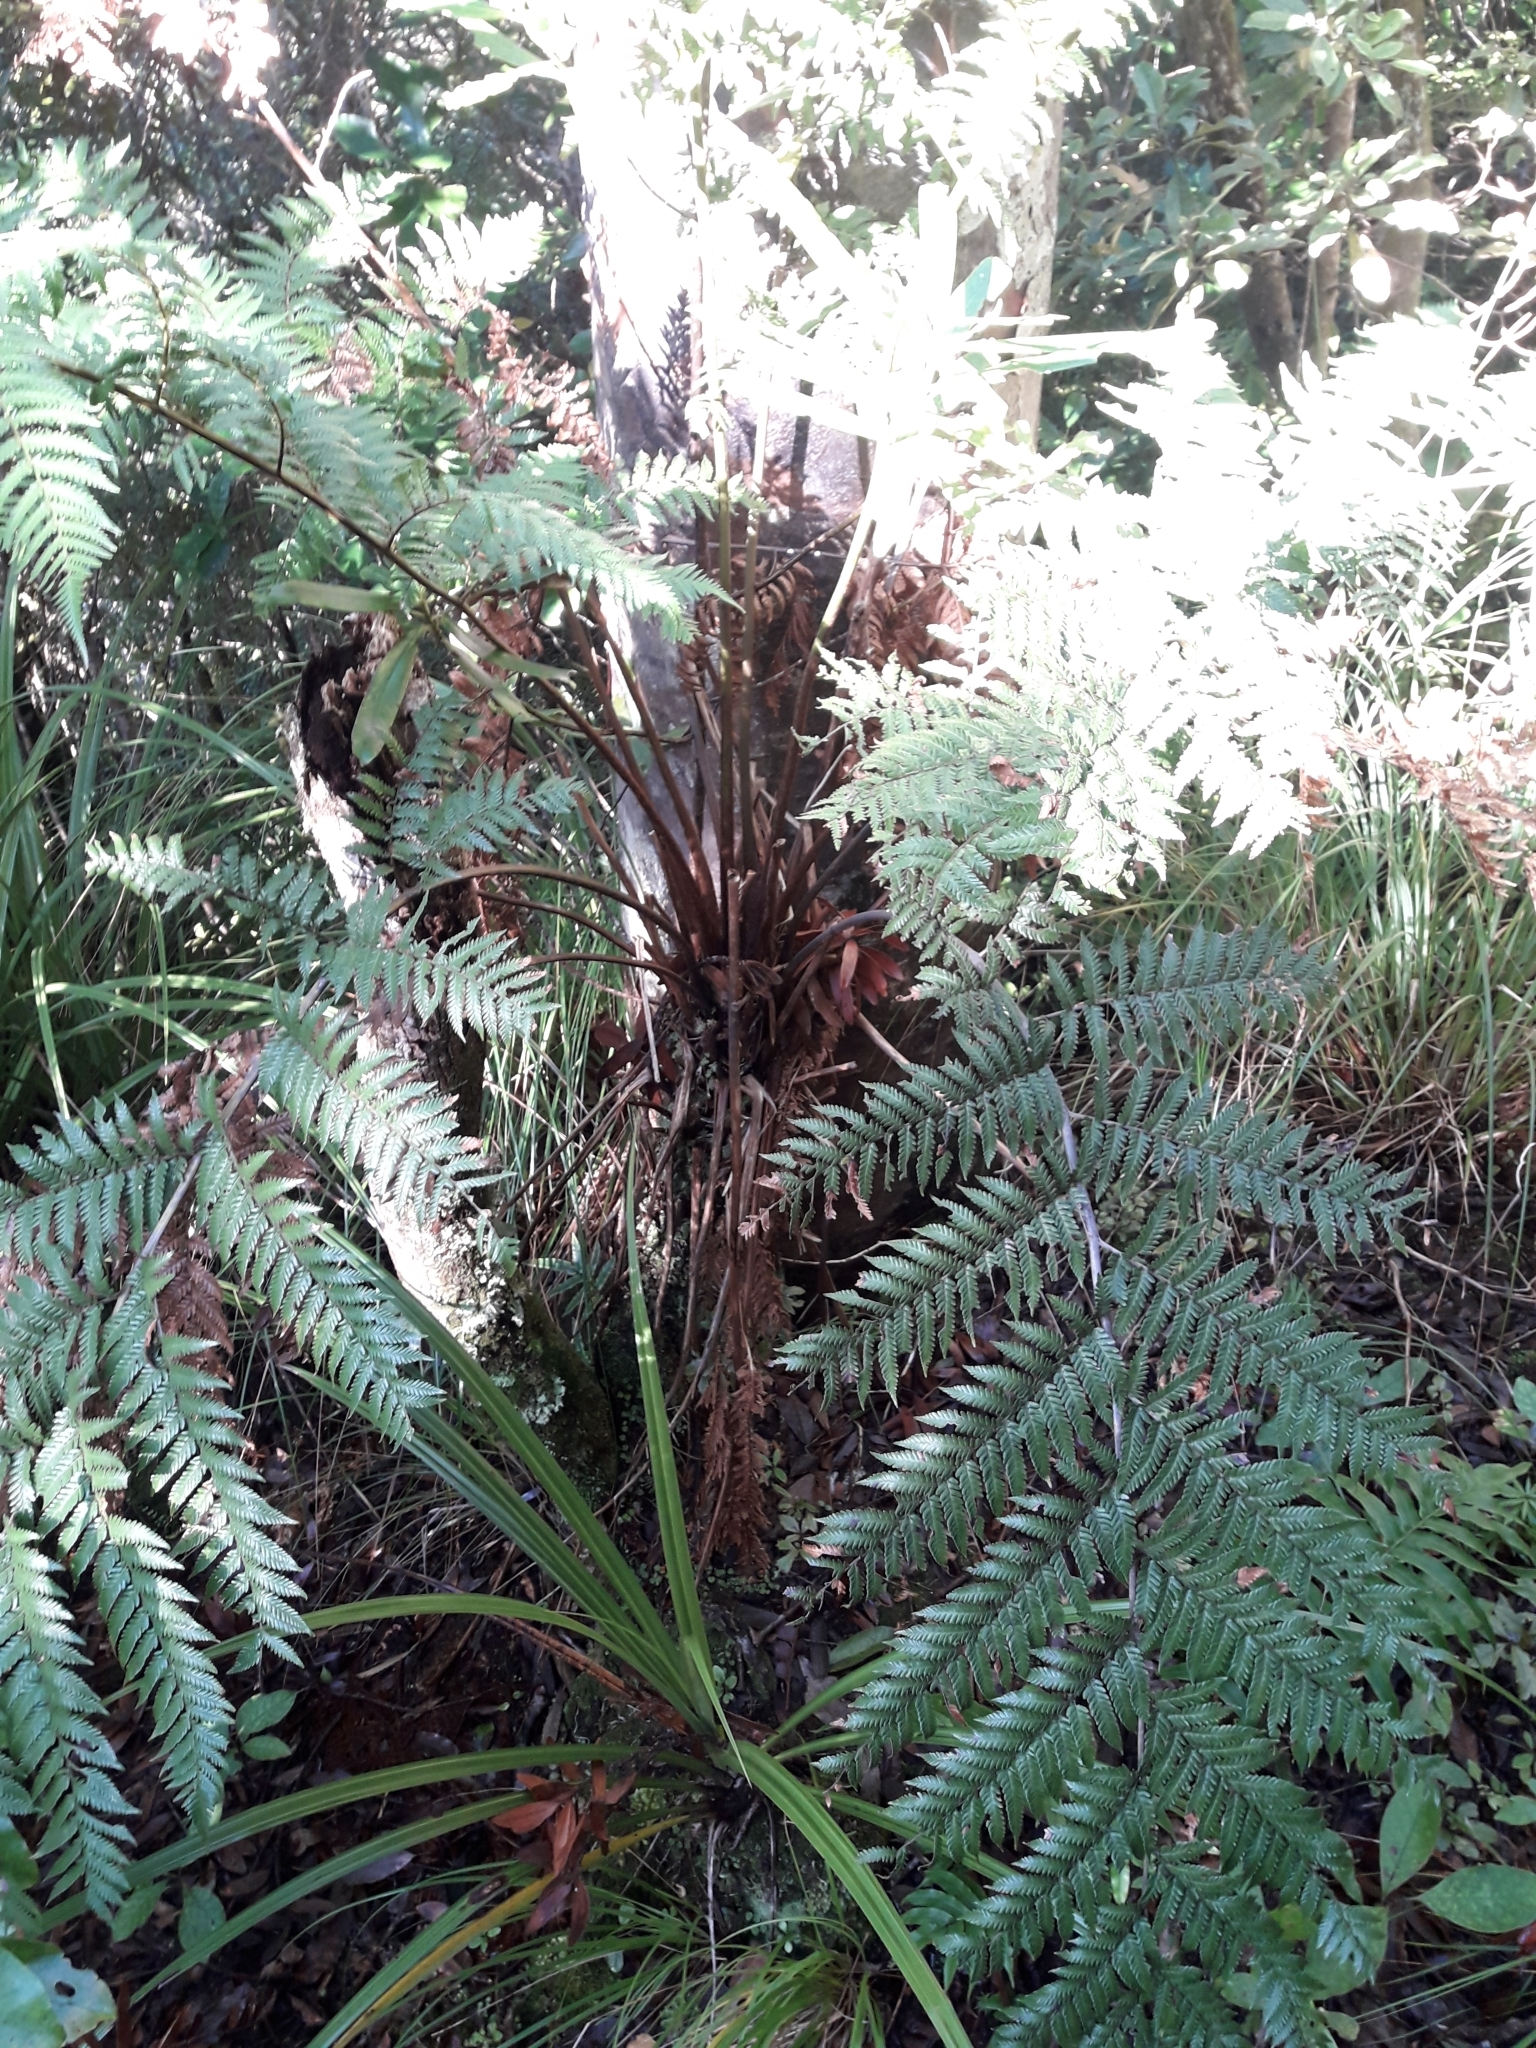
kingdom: Plantae
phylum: Tracheophyta
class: Polypodiopsida
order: Cyatheales
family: Dicksoniaceae
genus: Dicksonia
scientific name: Dicksonia lanata
